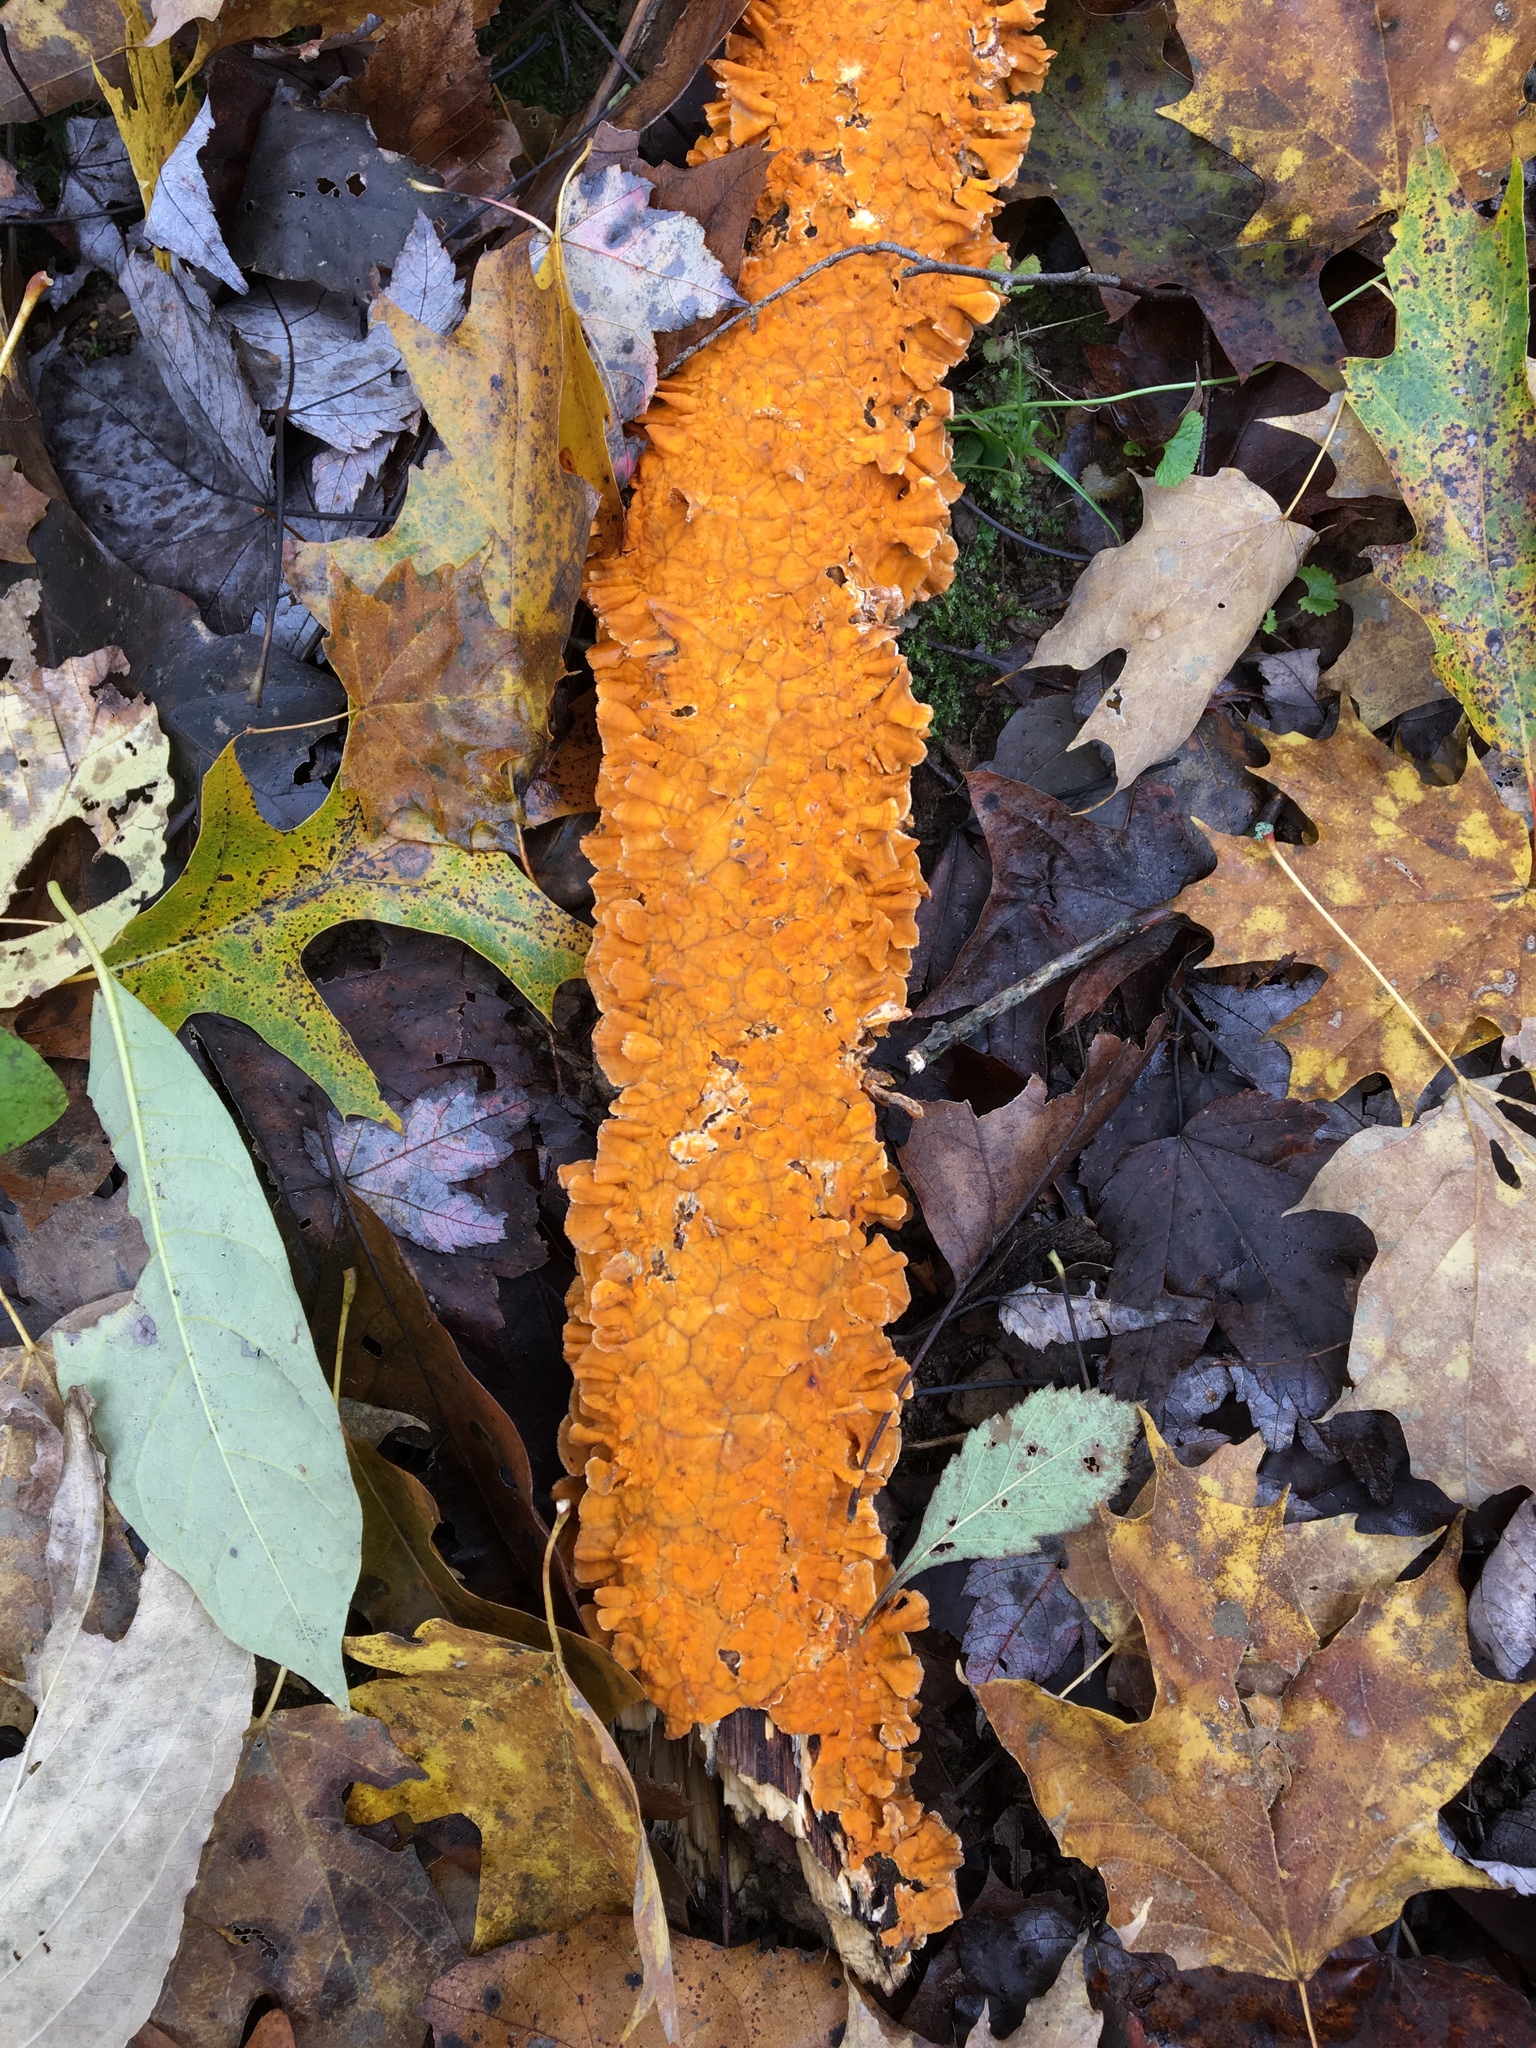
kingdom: Fungi
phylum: Basidiomycota
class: Agaricomycetes
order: Russulales
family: Stereaceae
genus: Stereum
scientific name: Stereum complicatum
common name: Crowded parchment
